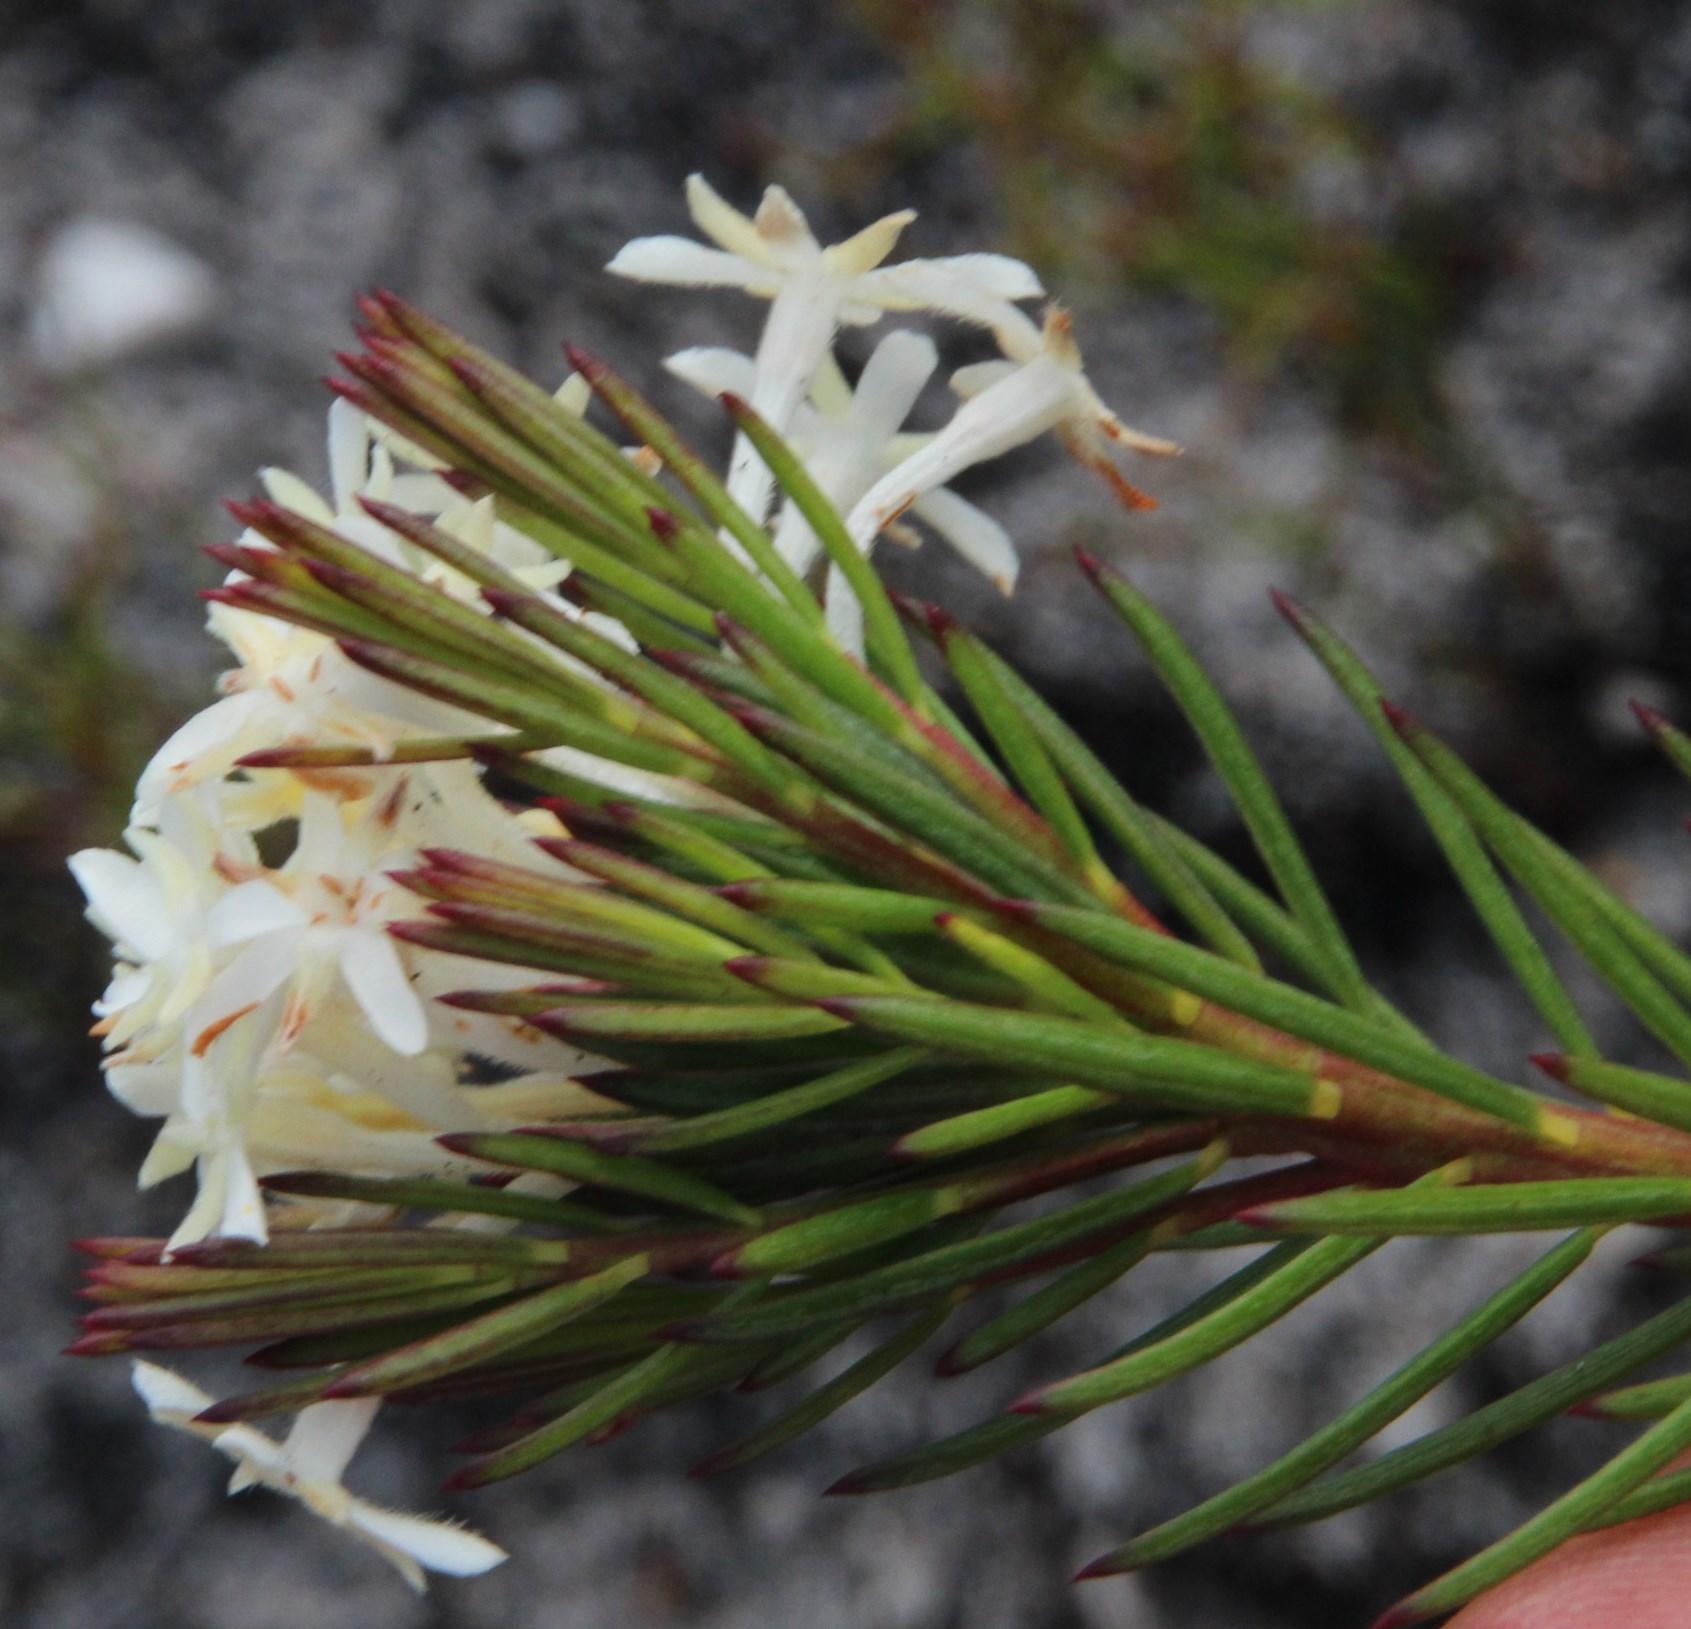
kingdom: Plantae
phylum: Tracheophyta
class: Magnoliopsida
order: Malvales
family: Thymelaeaceae
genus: Gnidia
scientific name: Gnidia pinifolia
